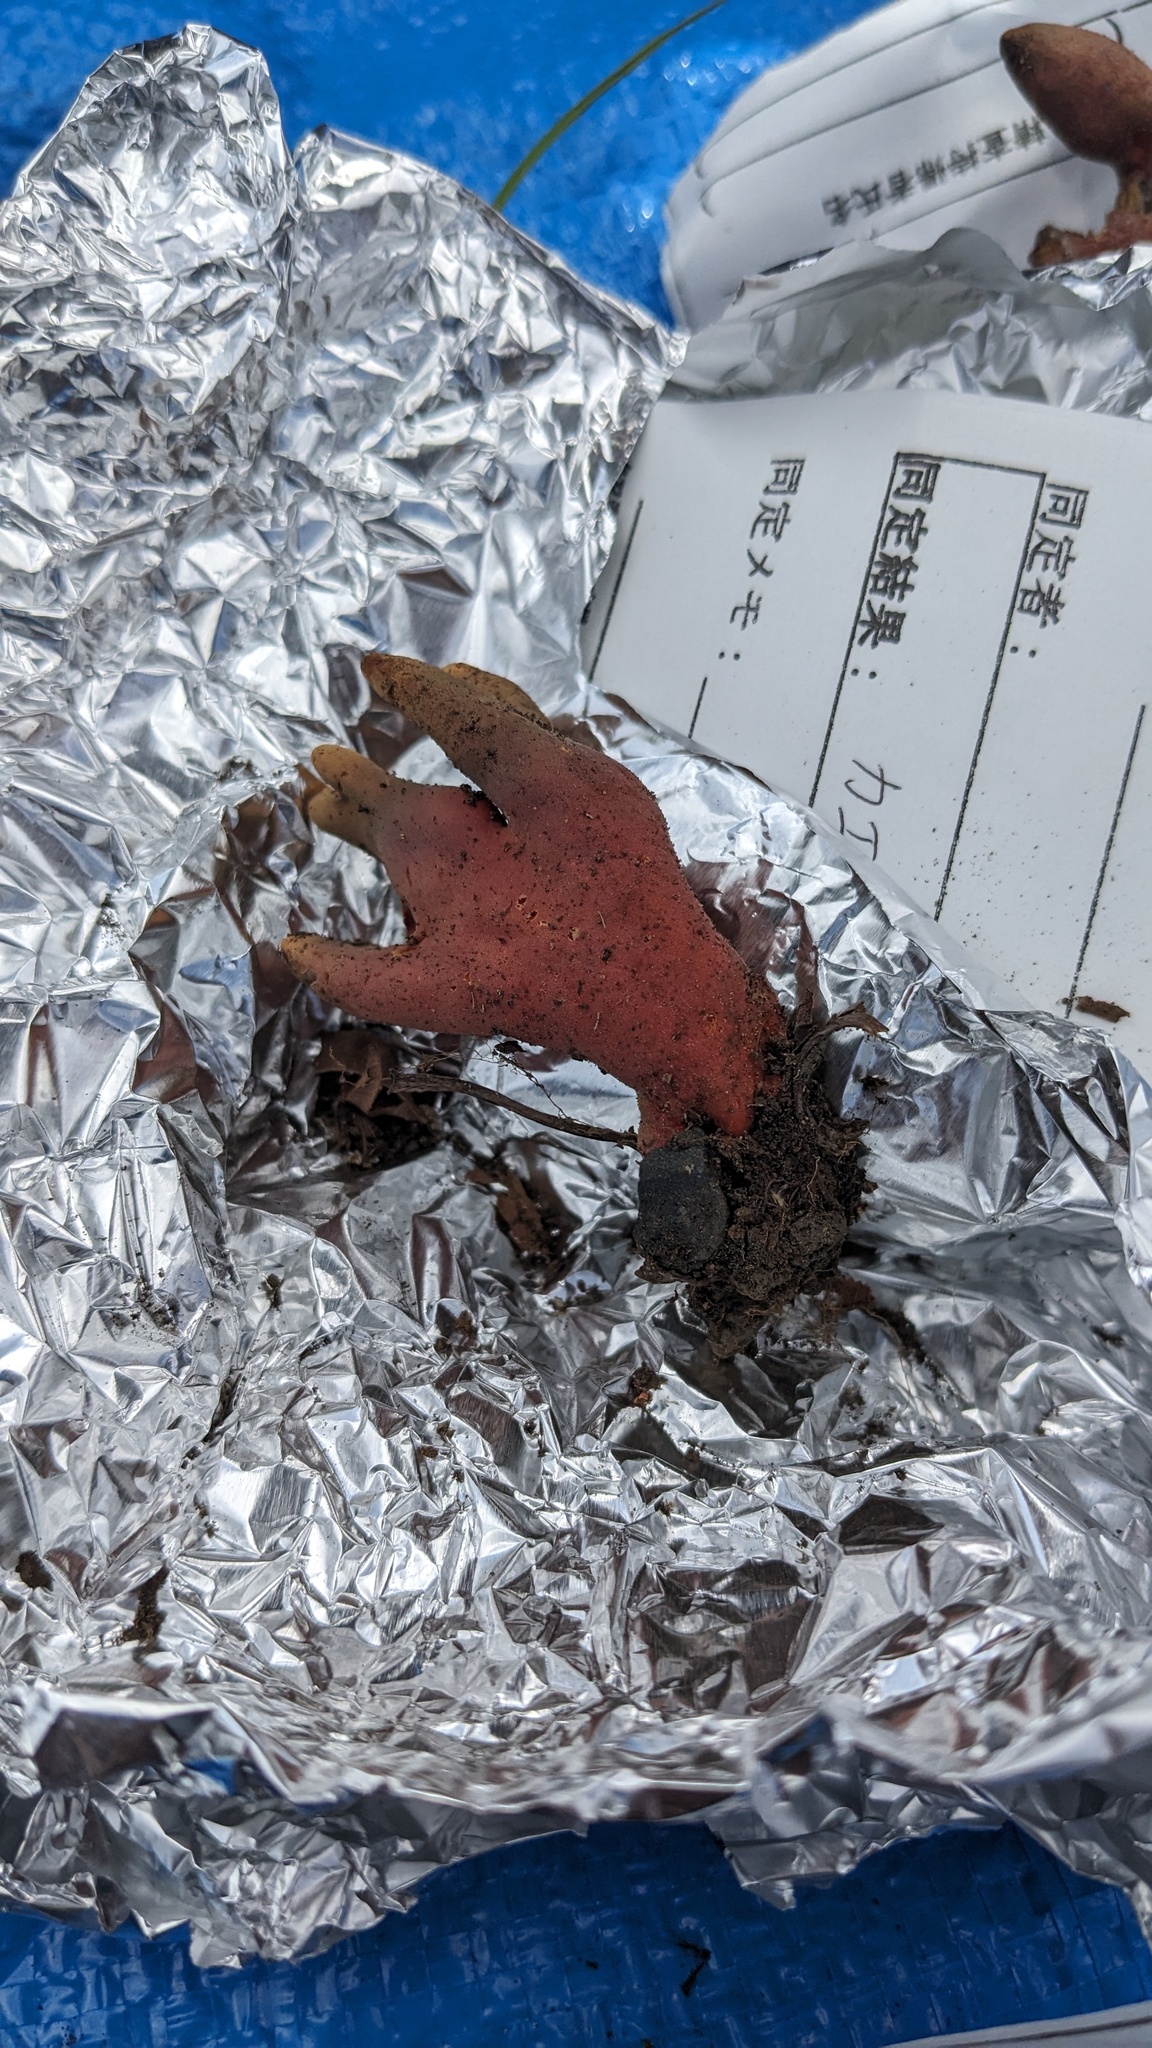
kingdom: Fungi
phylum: Ascomycota
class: Sordariomycetes
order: Hypocreales
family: Hypocreaceae
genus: Trichoderma
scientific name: Trichoderma cornu-damae
